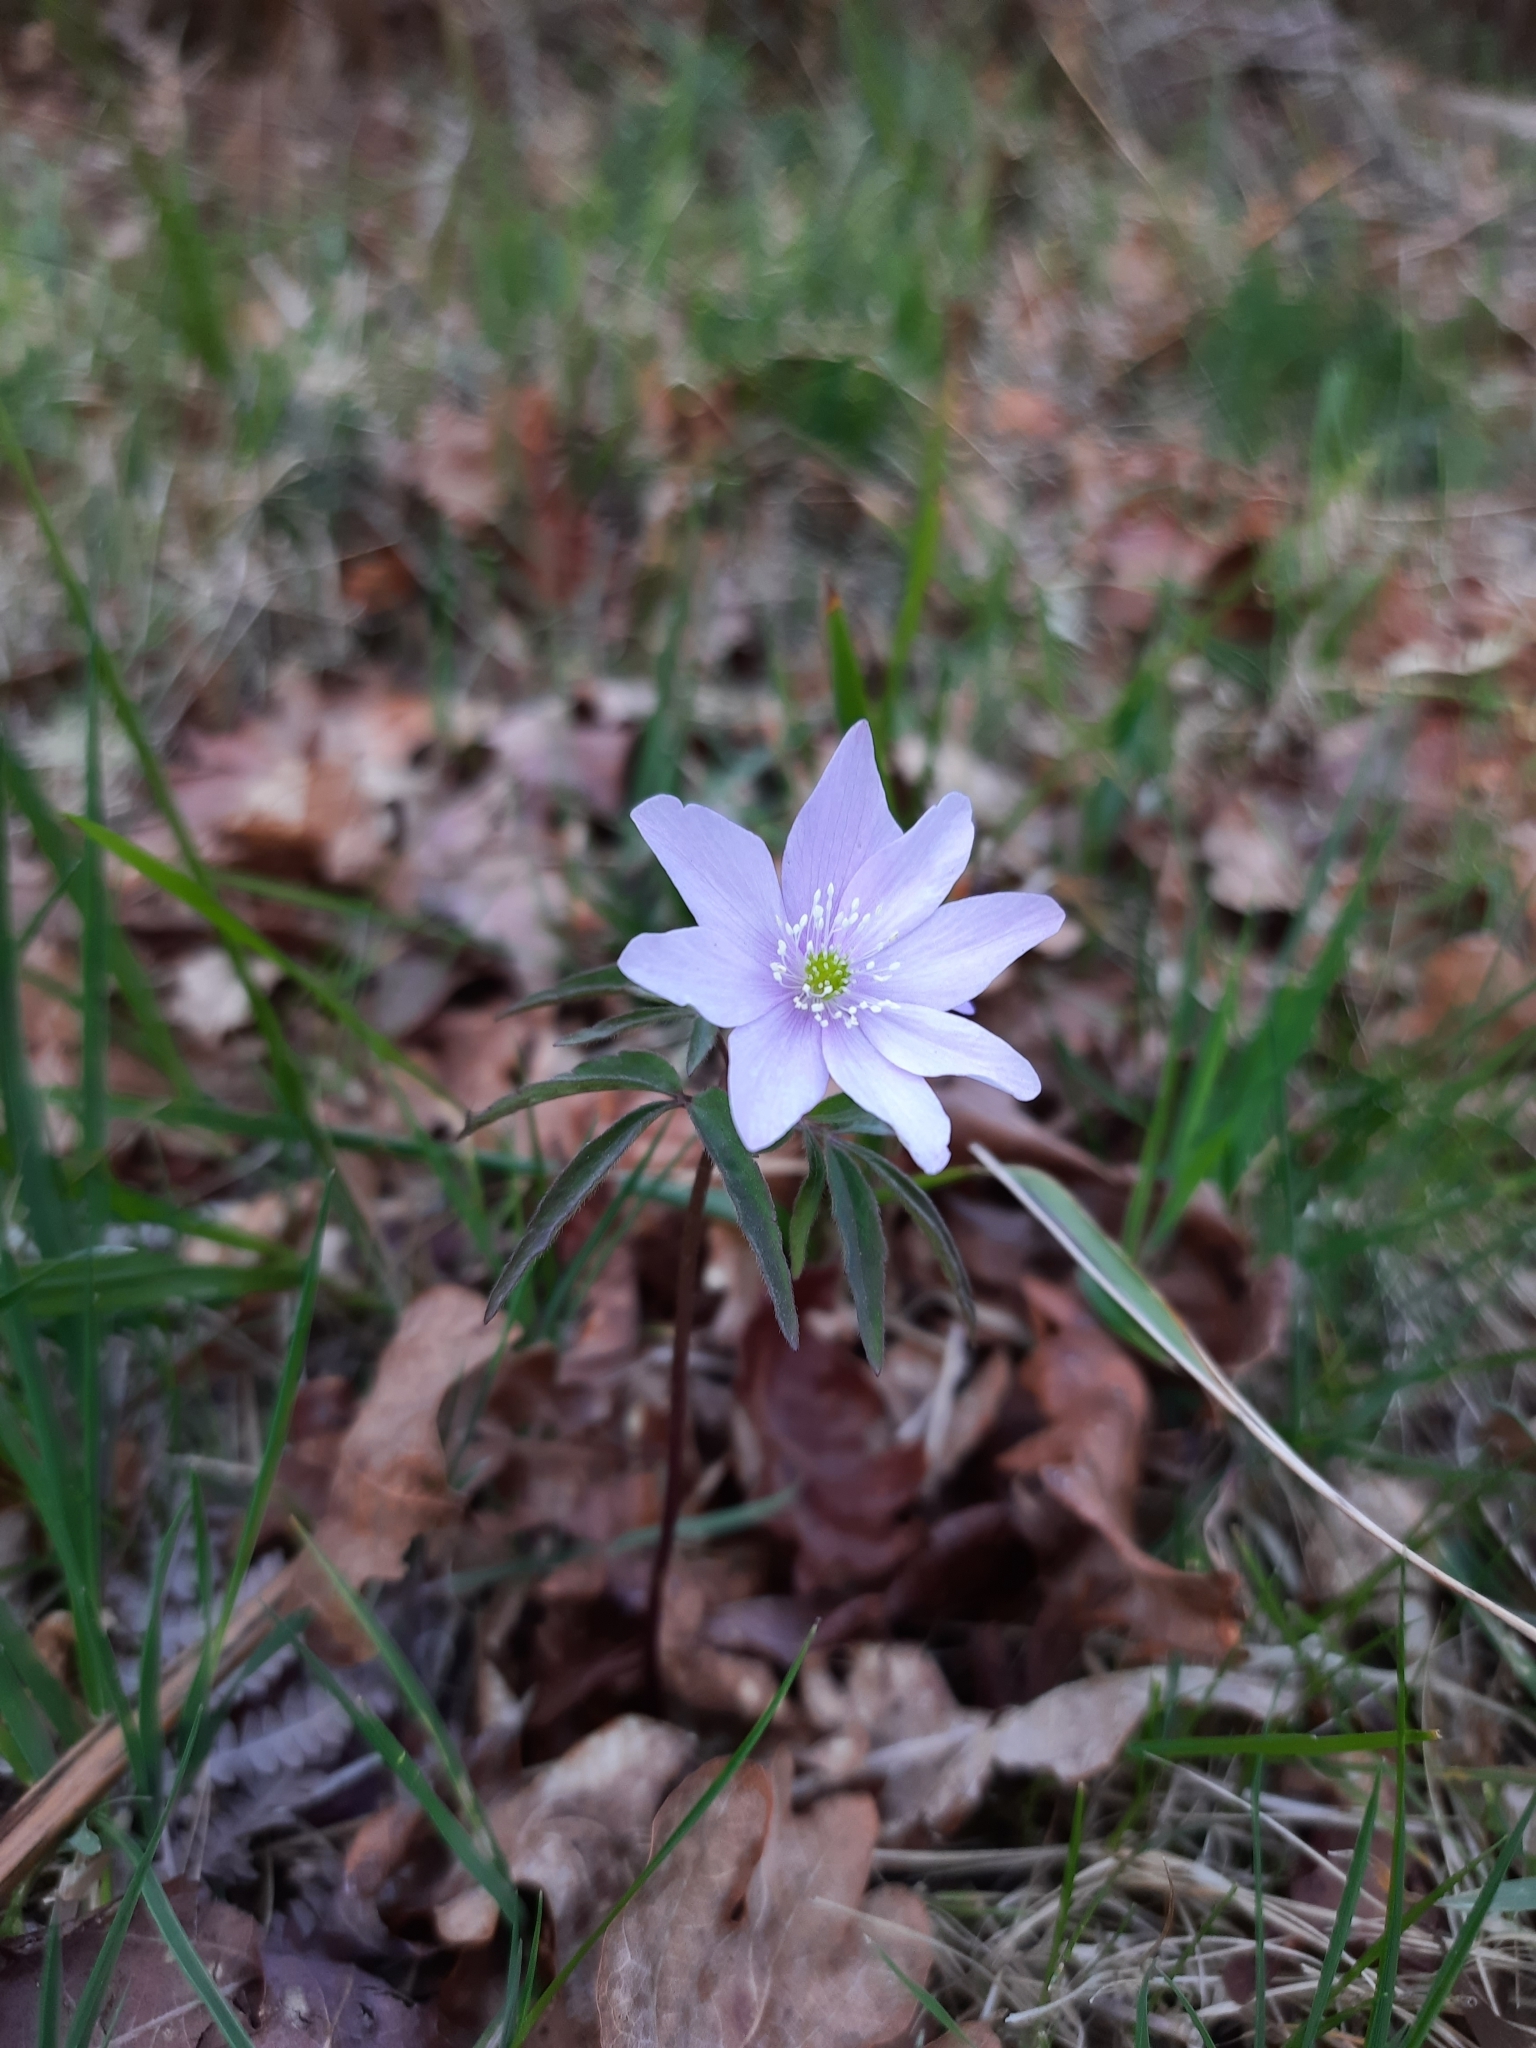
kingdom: Plantae
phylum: Tracheophyta
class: Magnoliopsida
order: Ranunculales
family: Ranunculaceae
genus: Anemone
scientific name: Anemone trifolia
